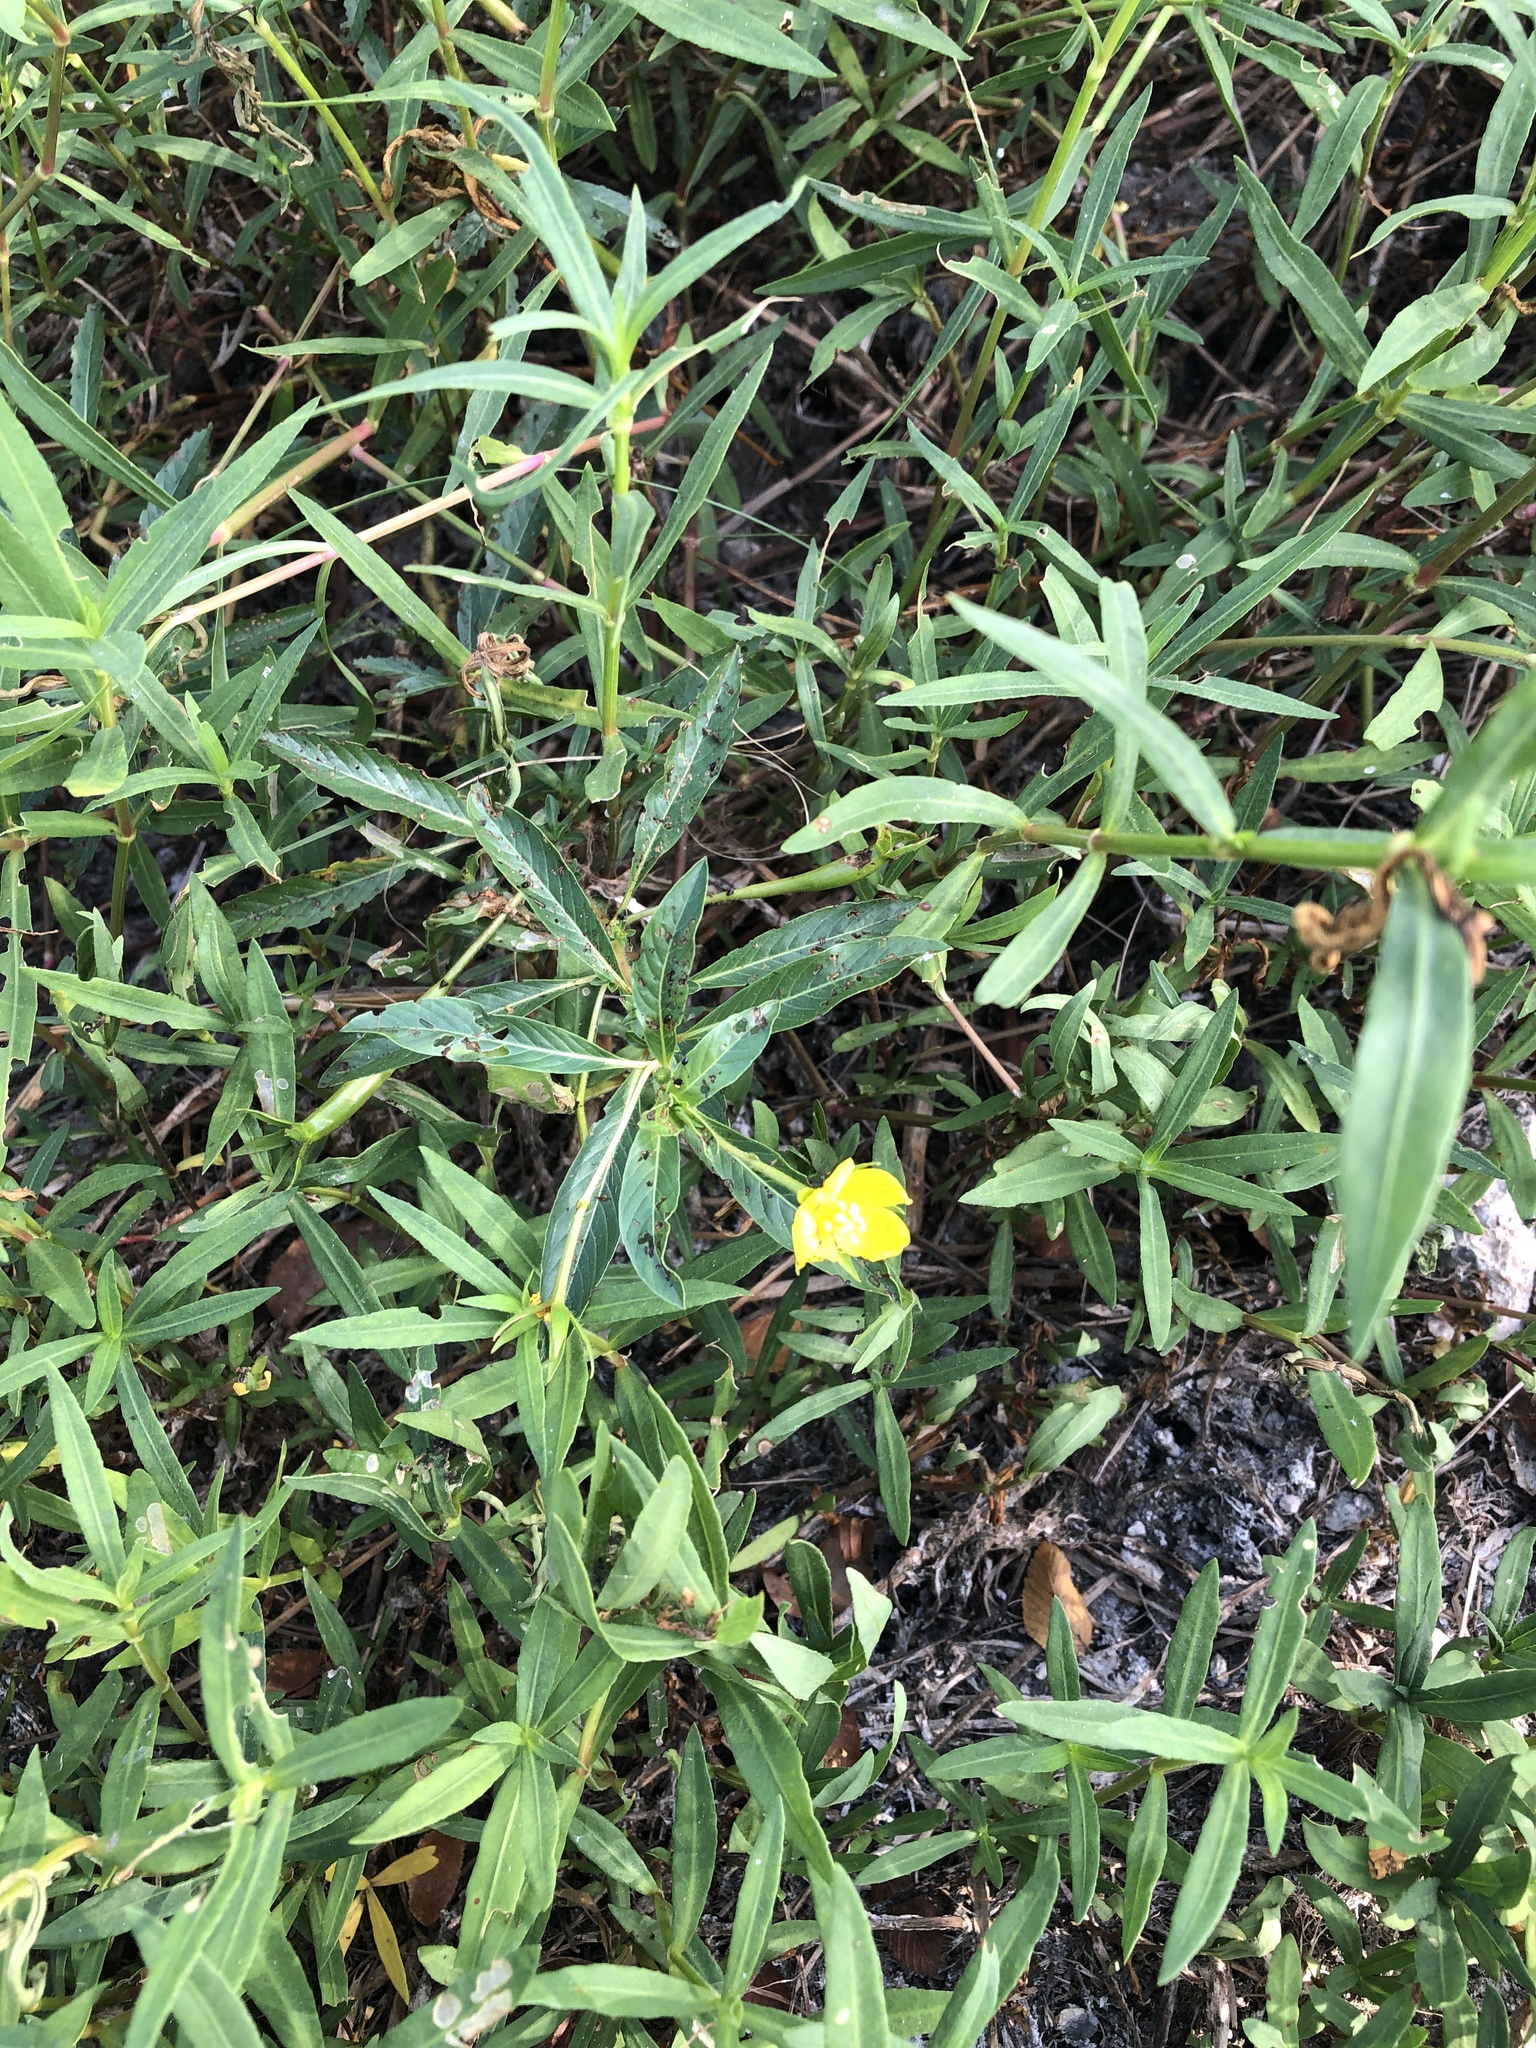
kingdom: Plantae
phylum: Tracheophyta
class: Magnoliopsida
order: Myrtales
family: Onagraceae
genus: Ludwigia
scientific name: Ludwigia peploides
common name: Floating primrose-willow
